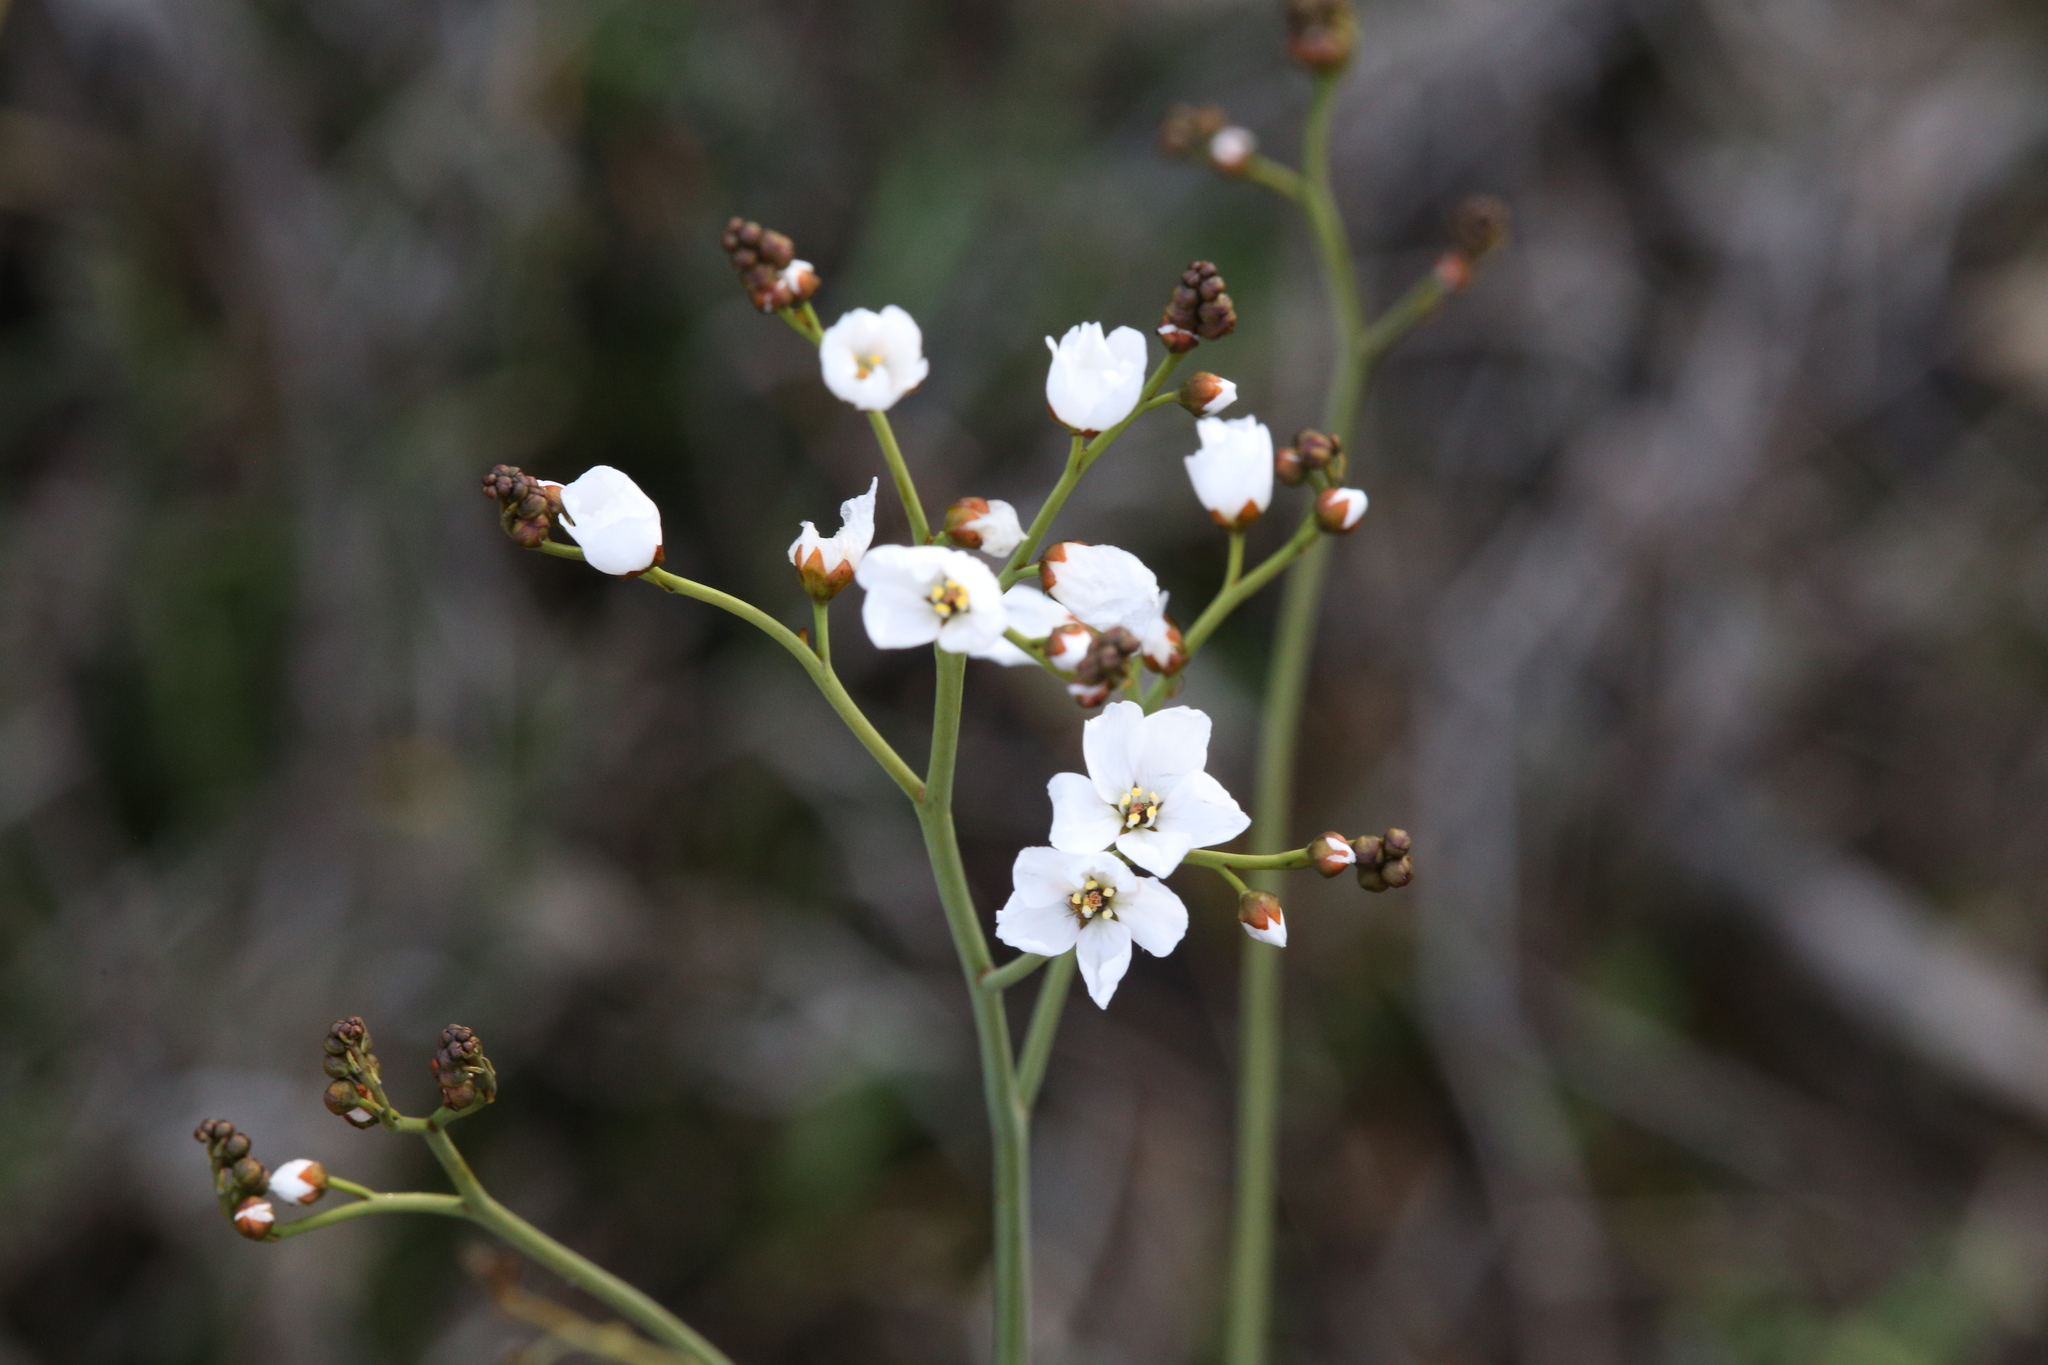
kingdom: Plantae
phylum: Tracheophyta
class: Magnoliopsida
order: Caryophyllales
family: Droseraceae
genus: Drosera
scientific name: Drosera gigantea
